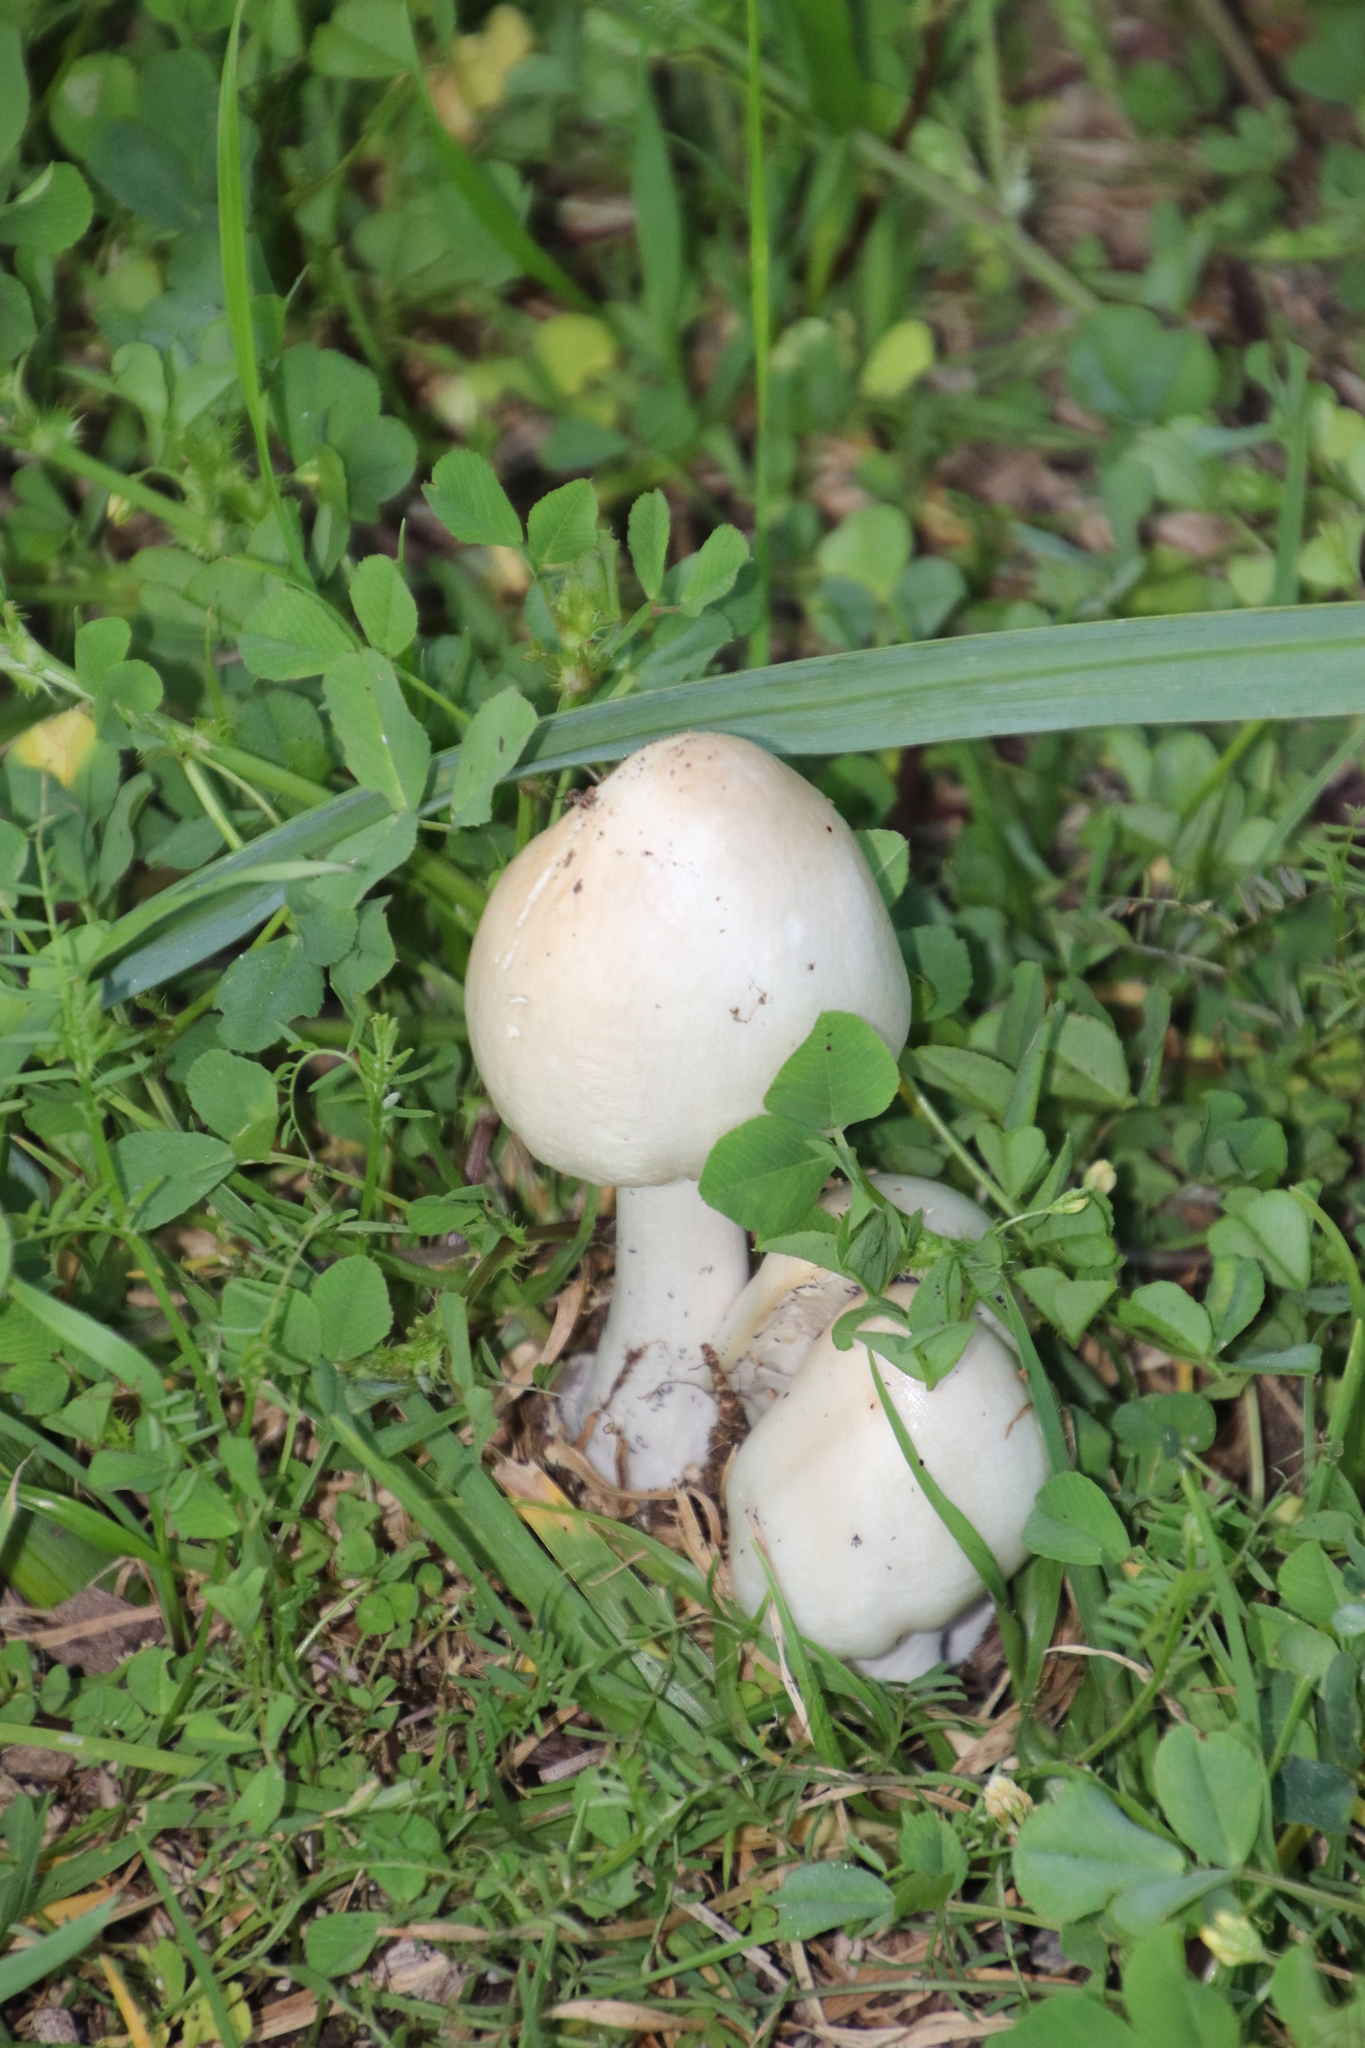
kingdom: Fungi
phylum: Basidiomycota
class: Agaricomycetes
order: Agaricales
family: Pluteaceae
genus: Volvopluteus
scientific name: Volvopluteus gloiocephalus
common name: Stubble rosegill
